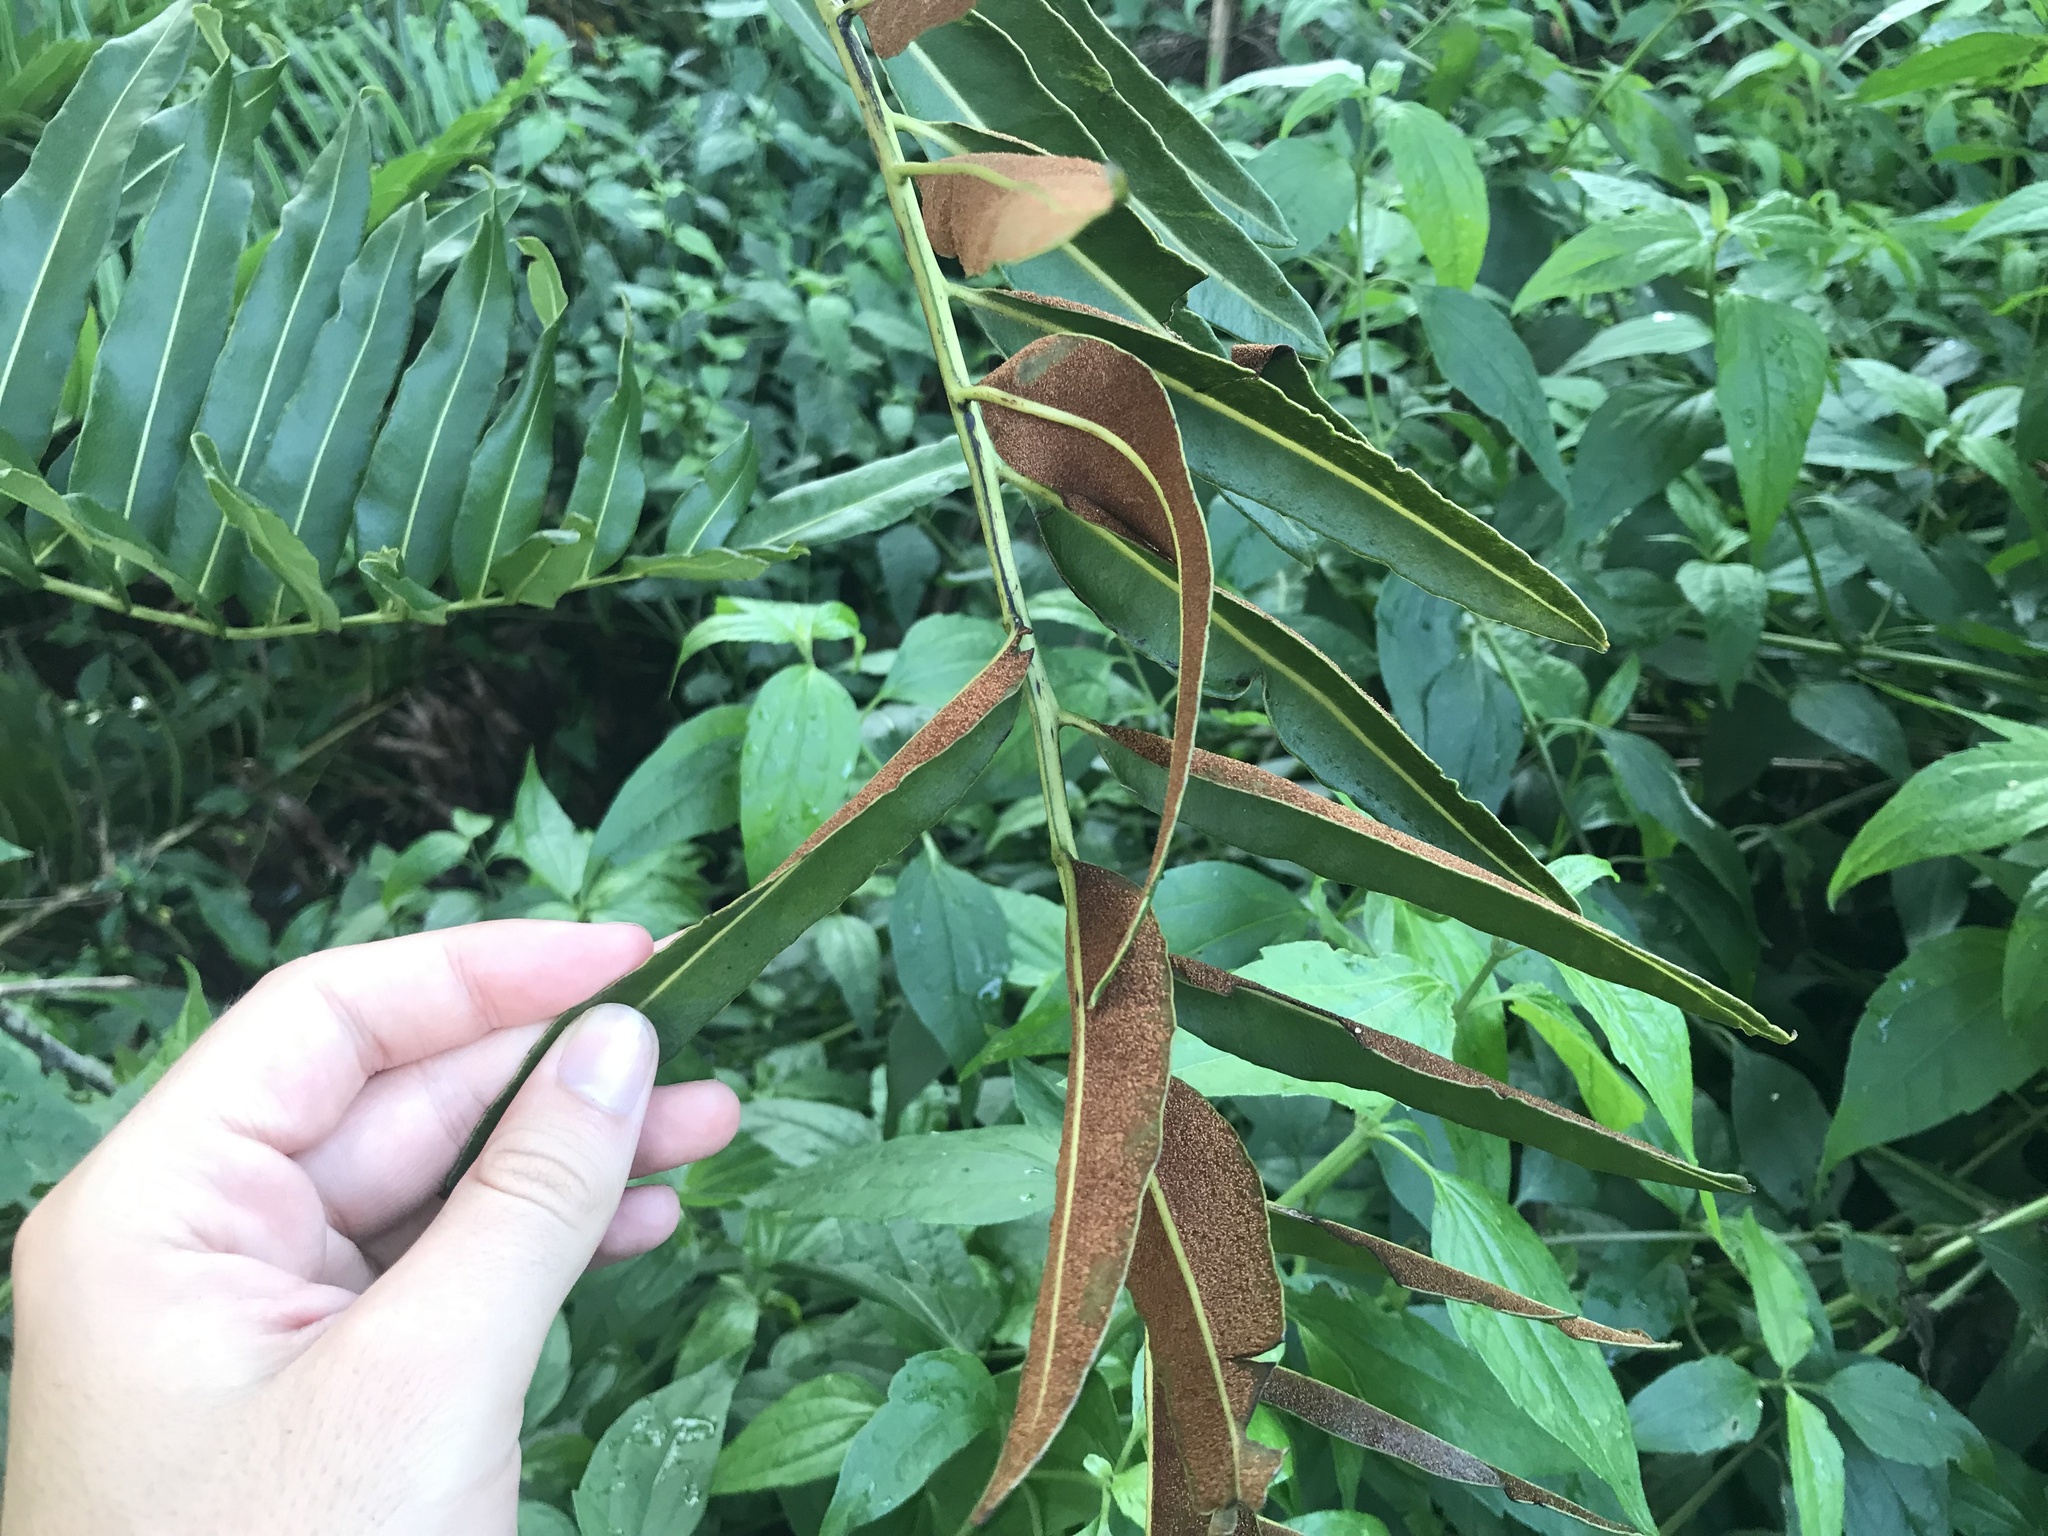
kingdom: Plantae
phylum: Tracheophyta
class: Polypodiopsida
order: Polypodiales
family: Pteridaceae
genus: Acrostichum
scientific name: Acrostichum danaeifolium
